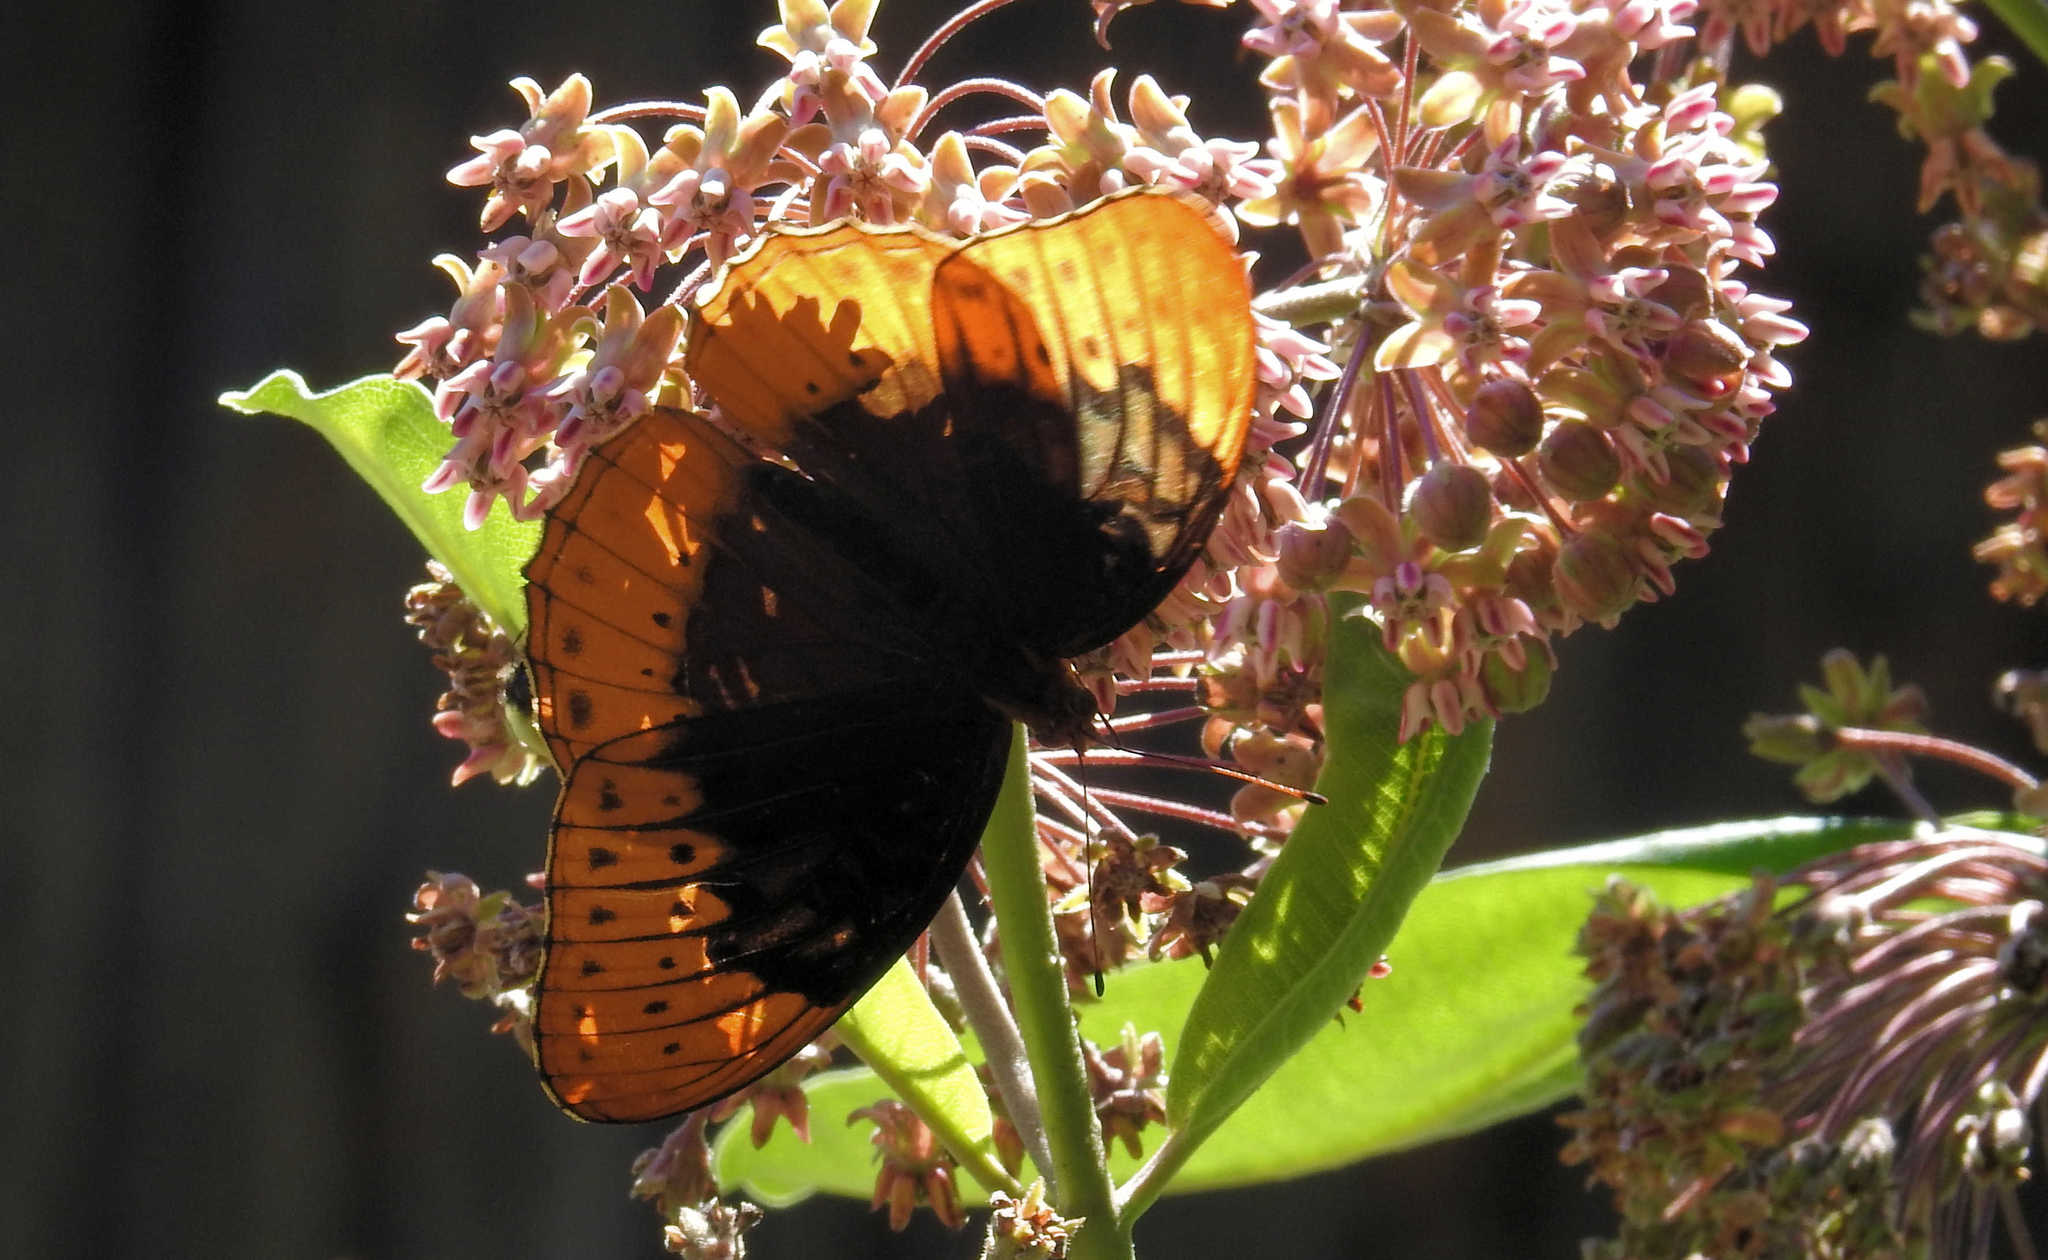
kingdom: Animalia
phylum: Arthropoda
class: Insecta
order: Lepidoptera
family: Nymphalidae
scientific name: Nymphalidae
